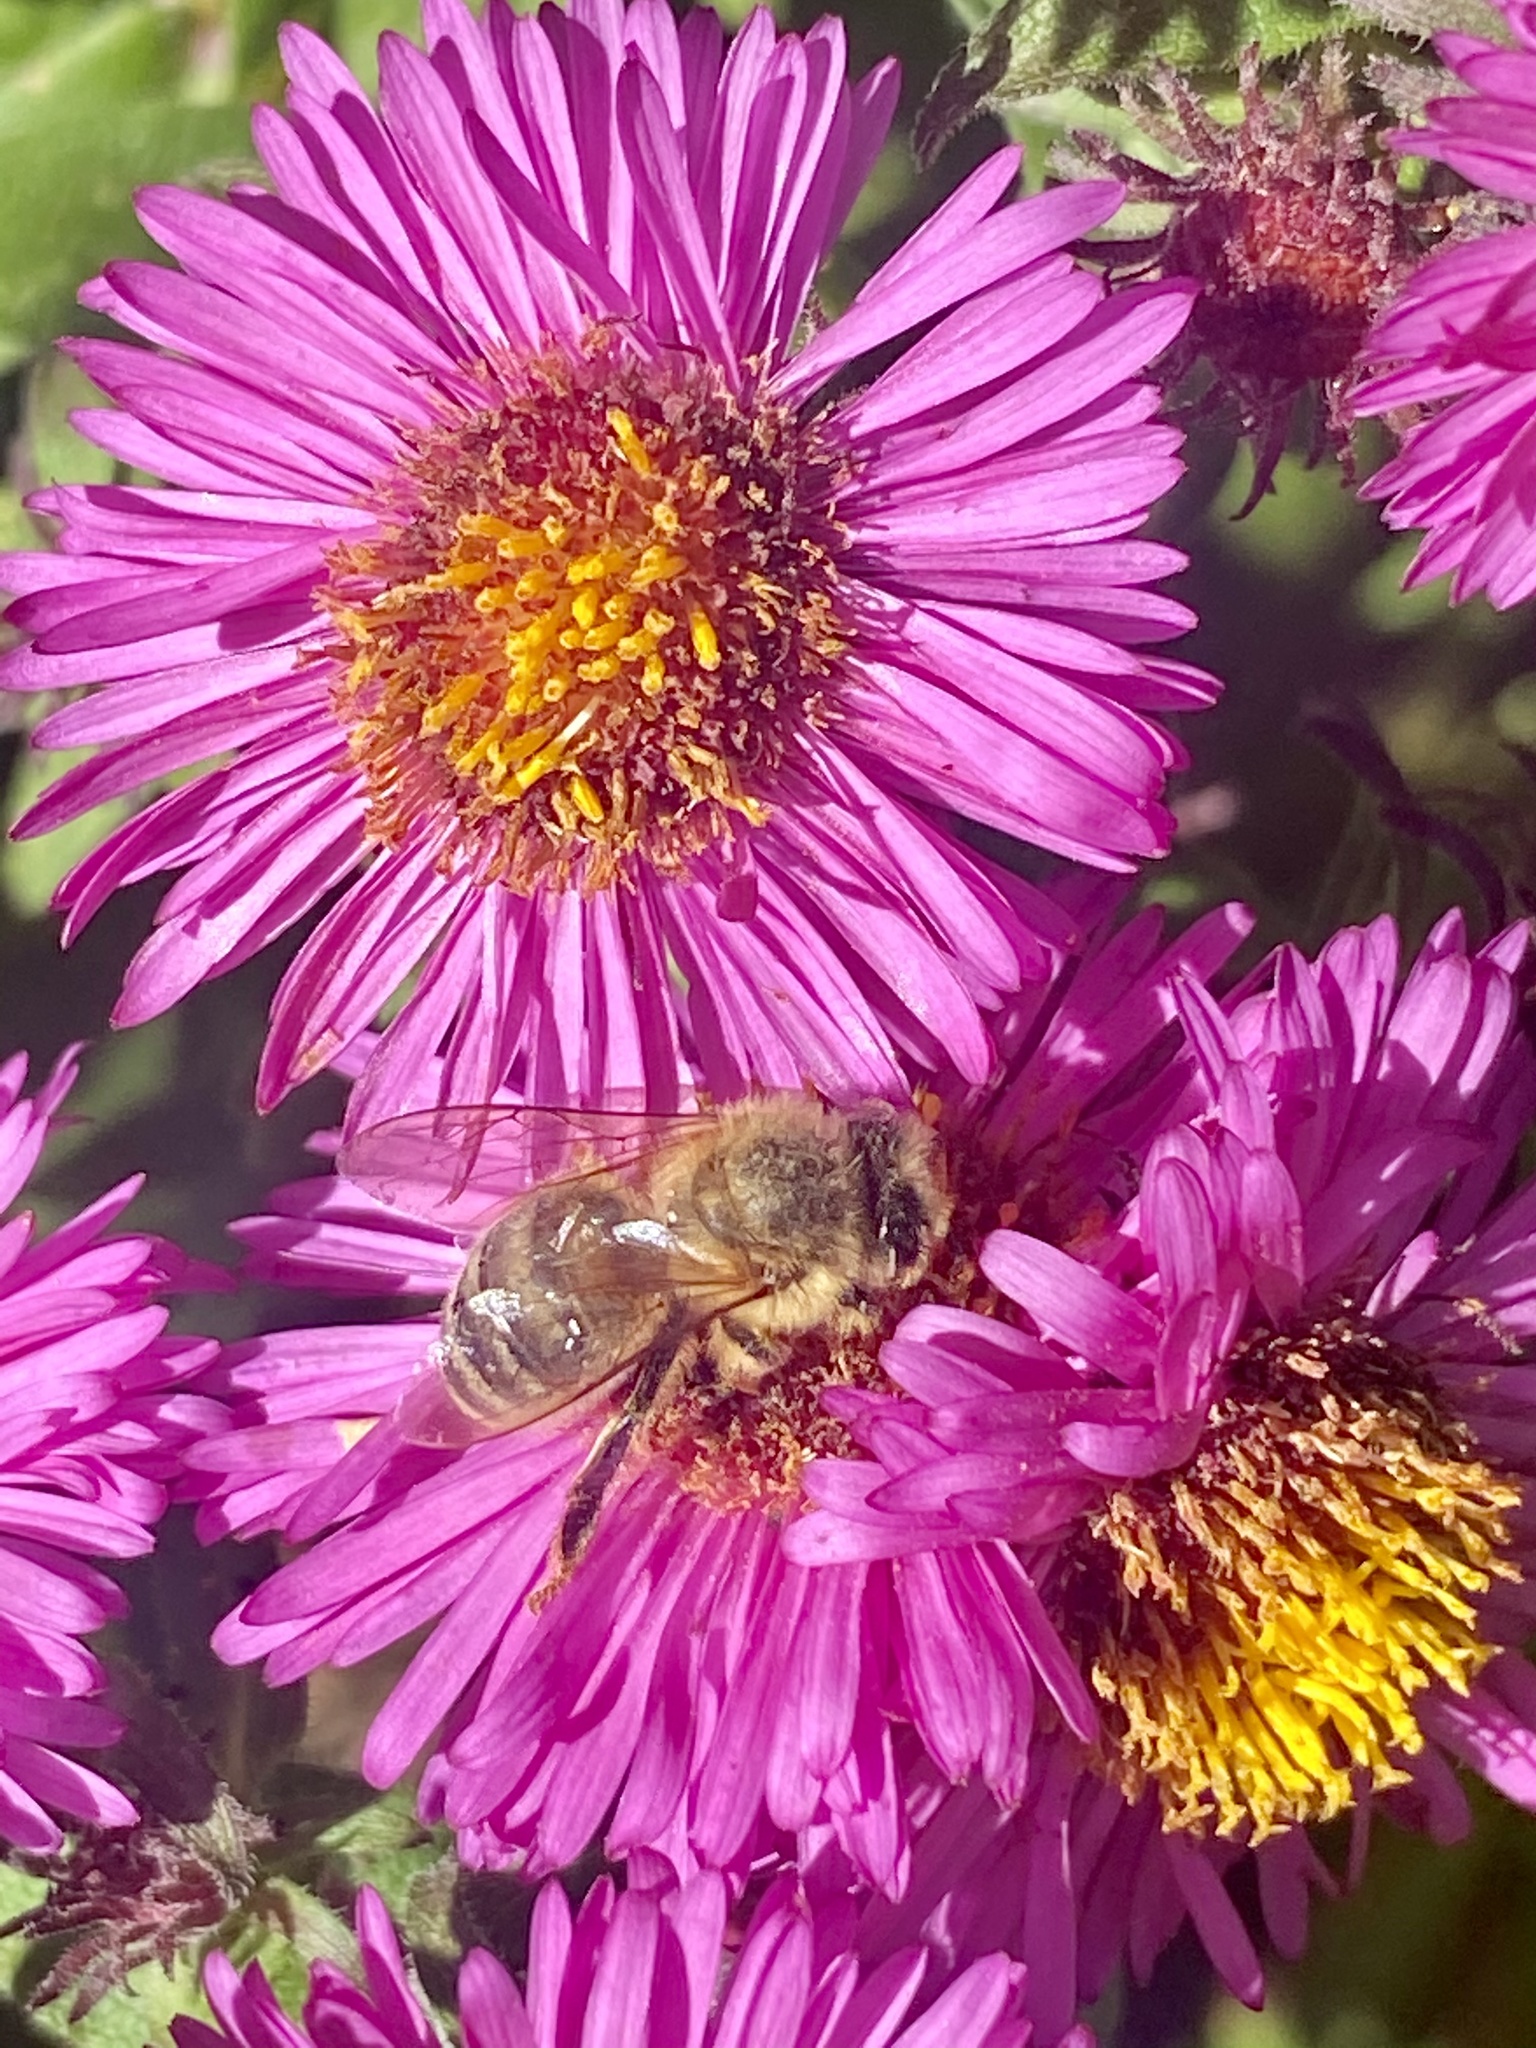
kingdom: Animalia
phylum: Arthropoda
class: Insecta
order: Hymenoptera
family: Apidae
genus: Apis
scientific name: Apis mellifera
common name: Honey bee
